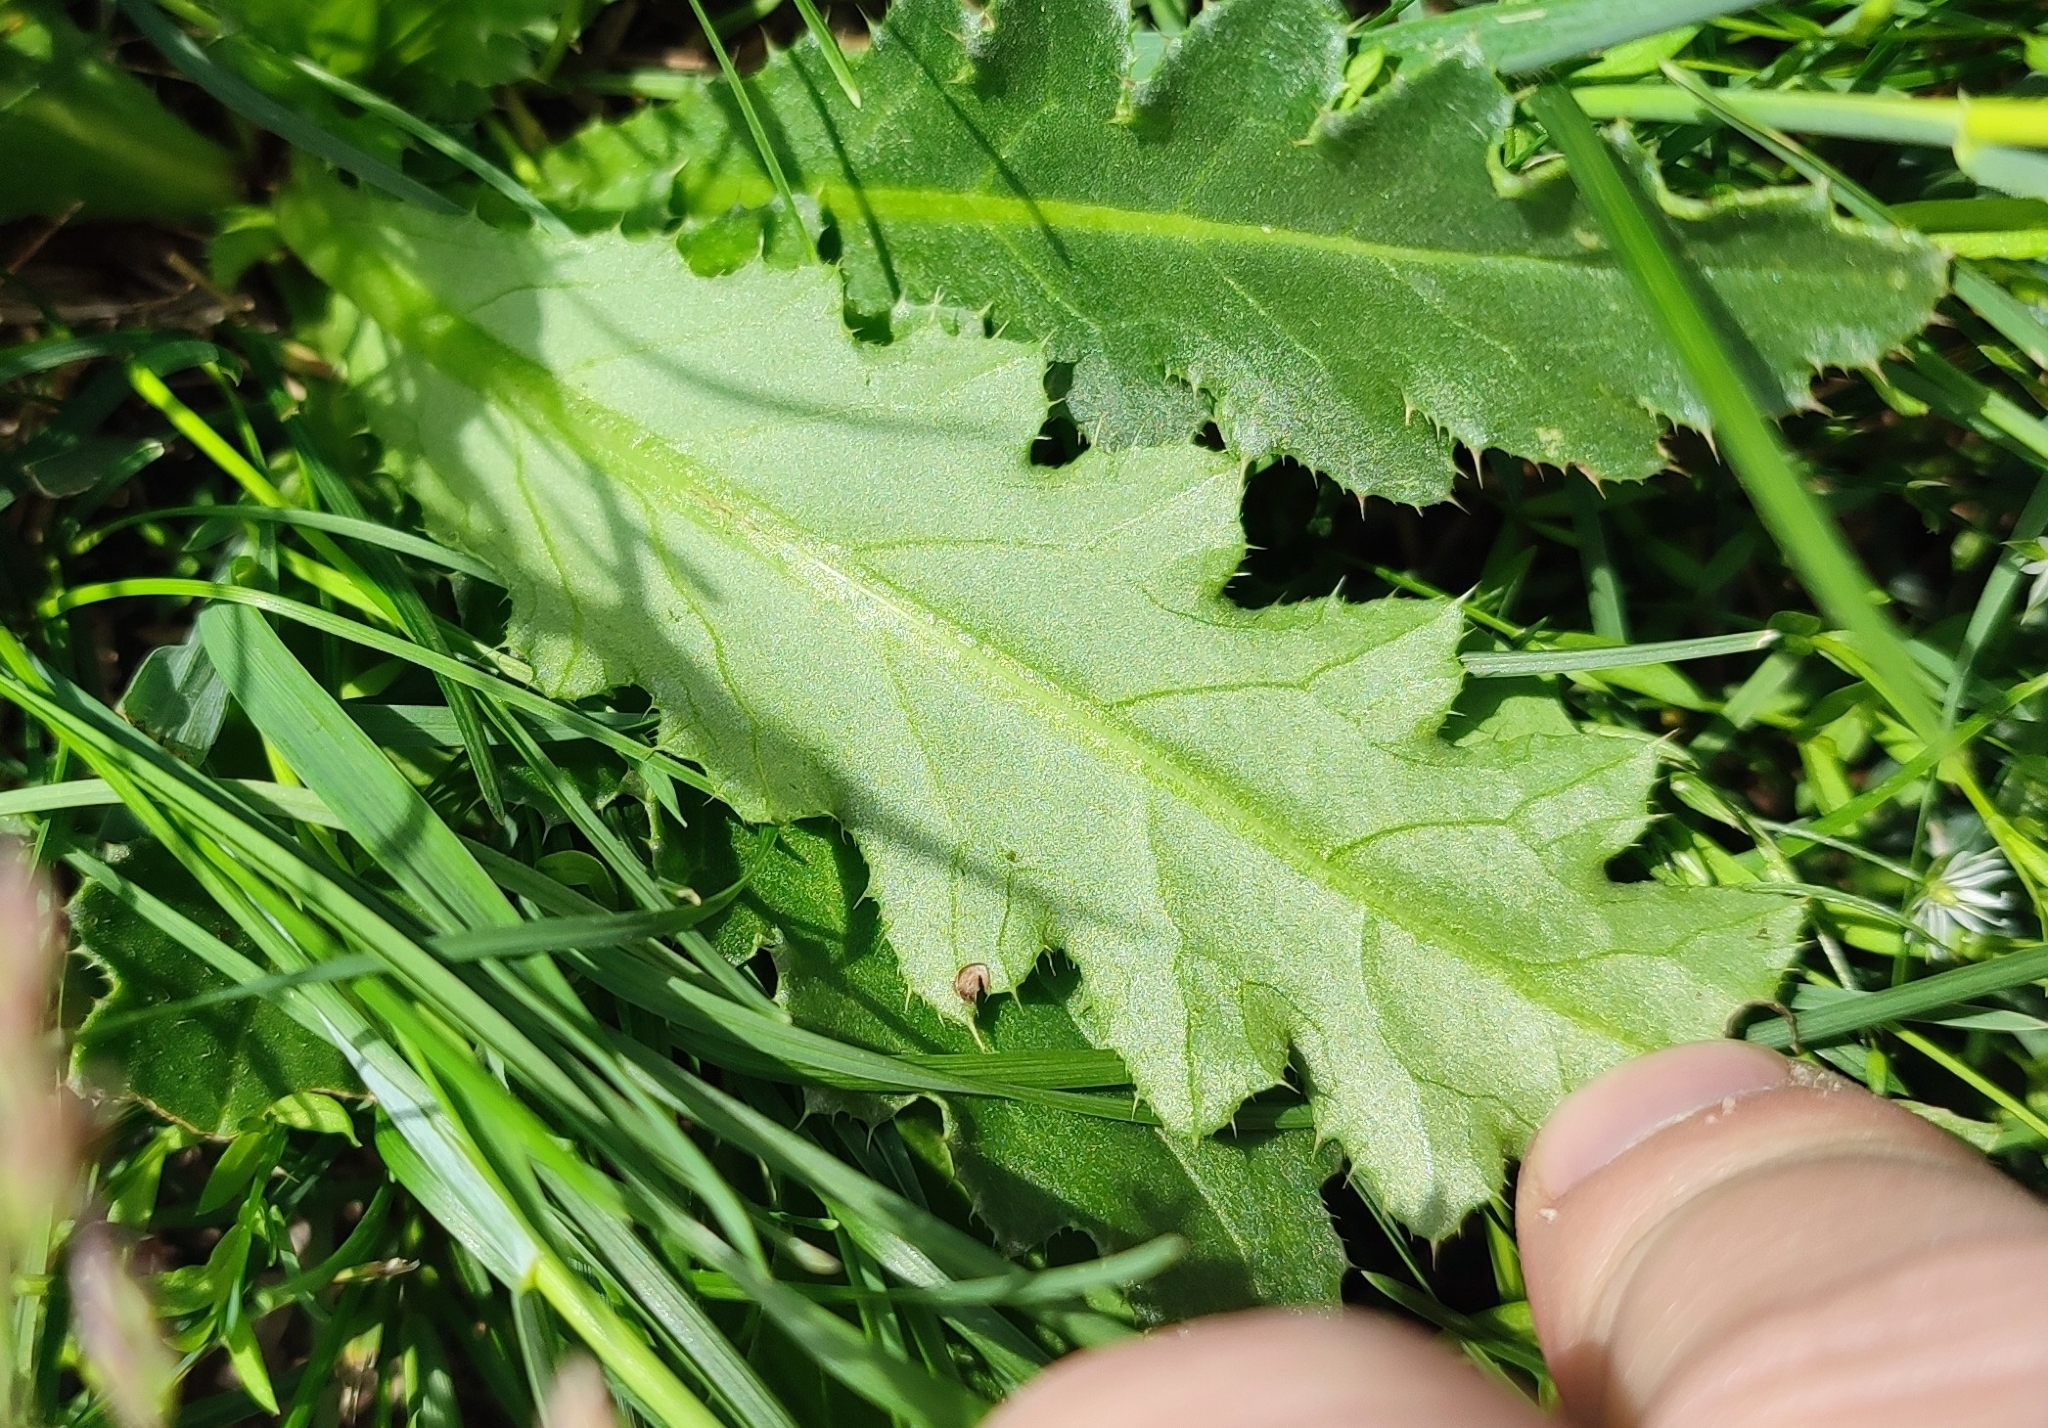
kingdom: Plantae
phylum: Tracheophyta
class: Magnoliopsida
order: Asterales
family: Asteraceae
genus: Cirsium
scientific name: Cirsium esculentum
